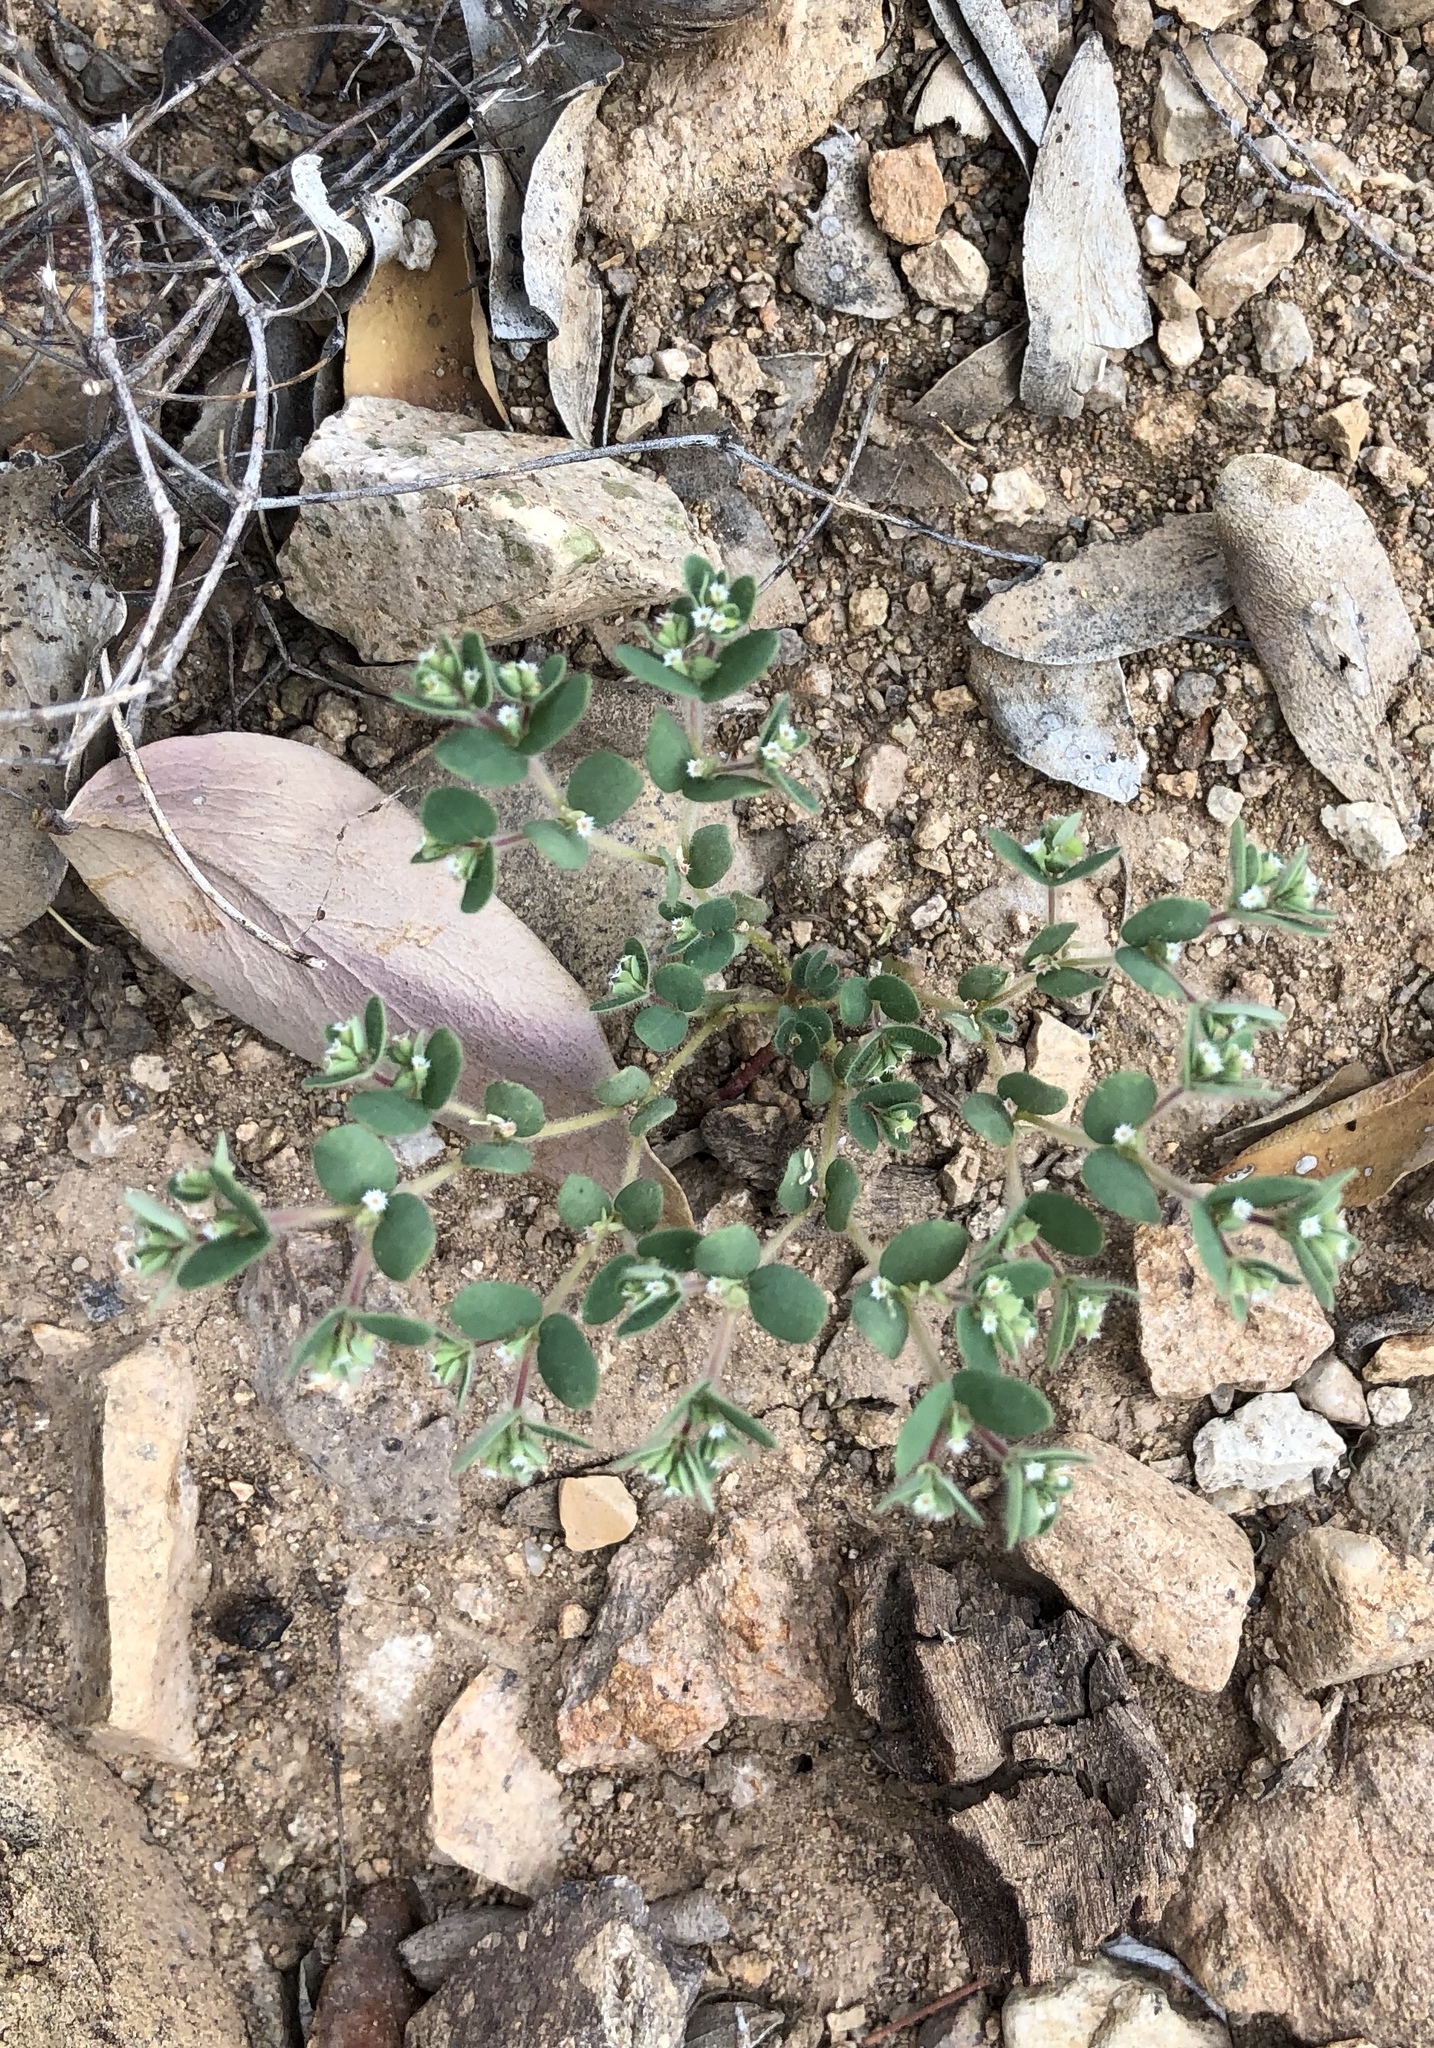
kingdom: Plantae
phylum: Tracheophyta
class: Magnoliopsida
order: Malpighiales
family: Euphorbiaceae
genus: Euphorbia
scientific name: Euphorbia setiloba
